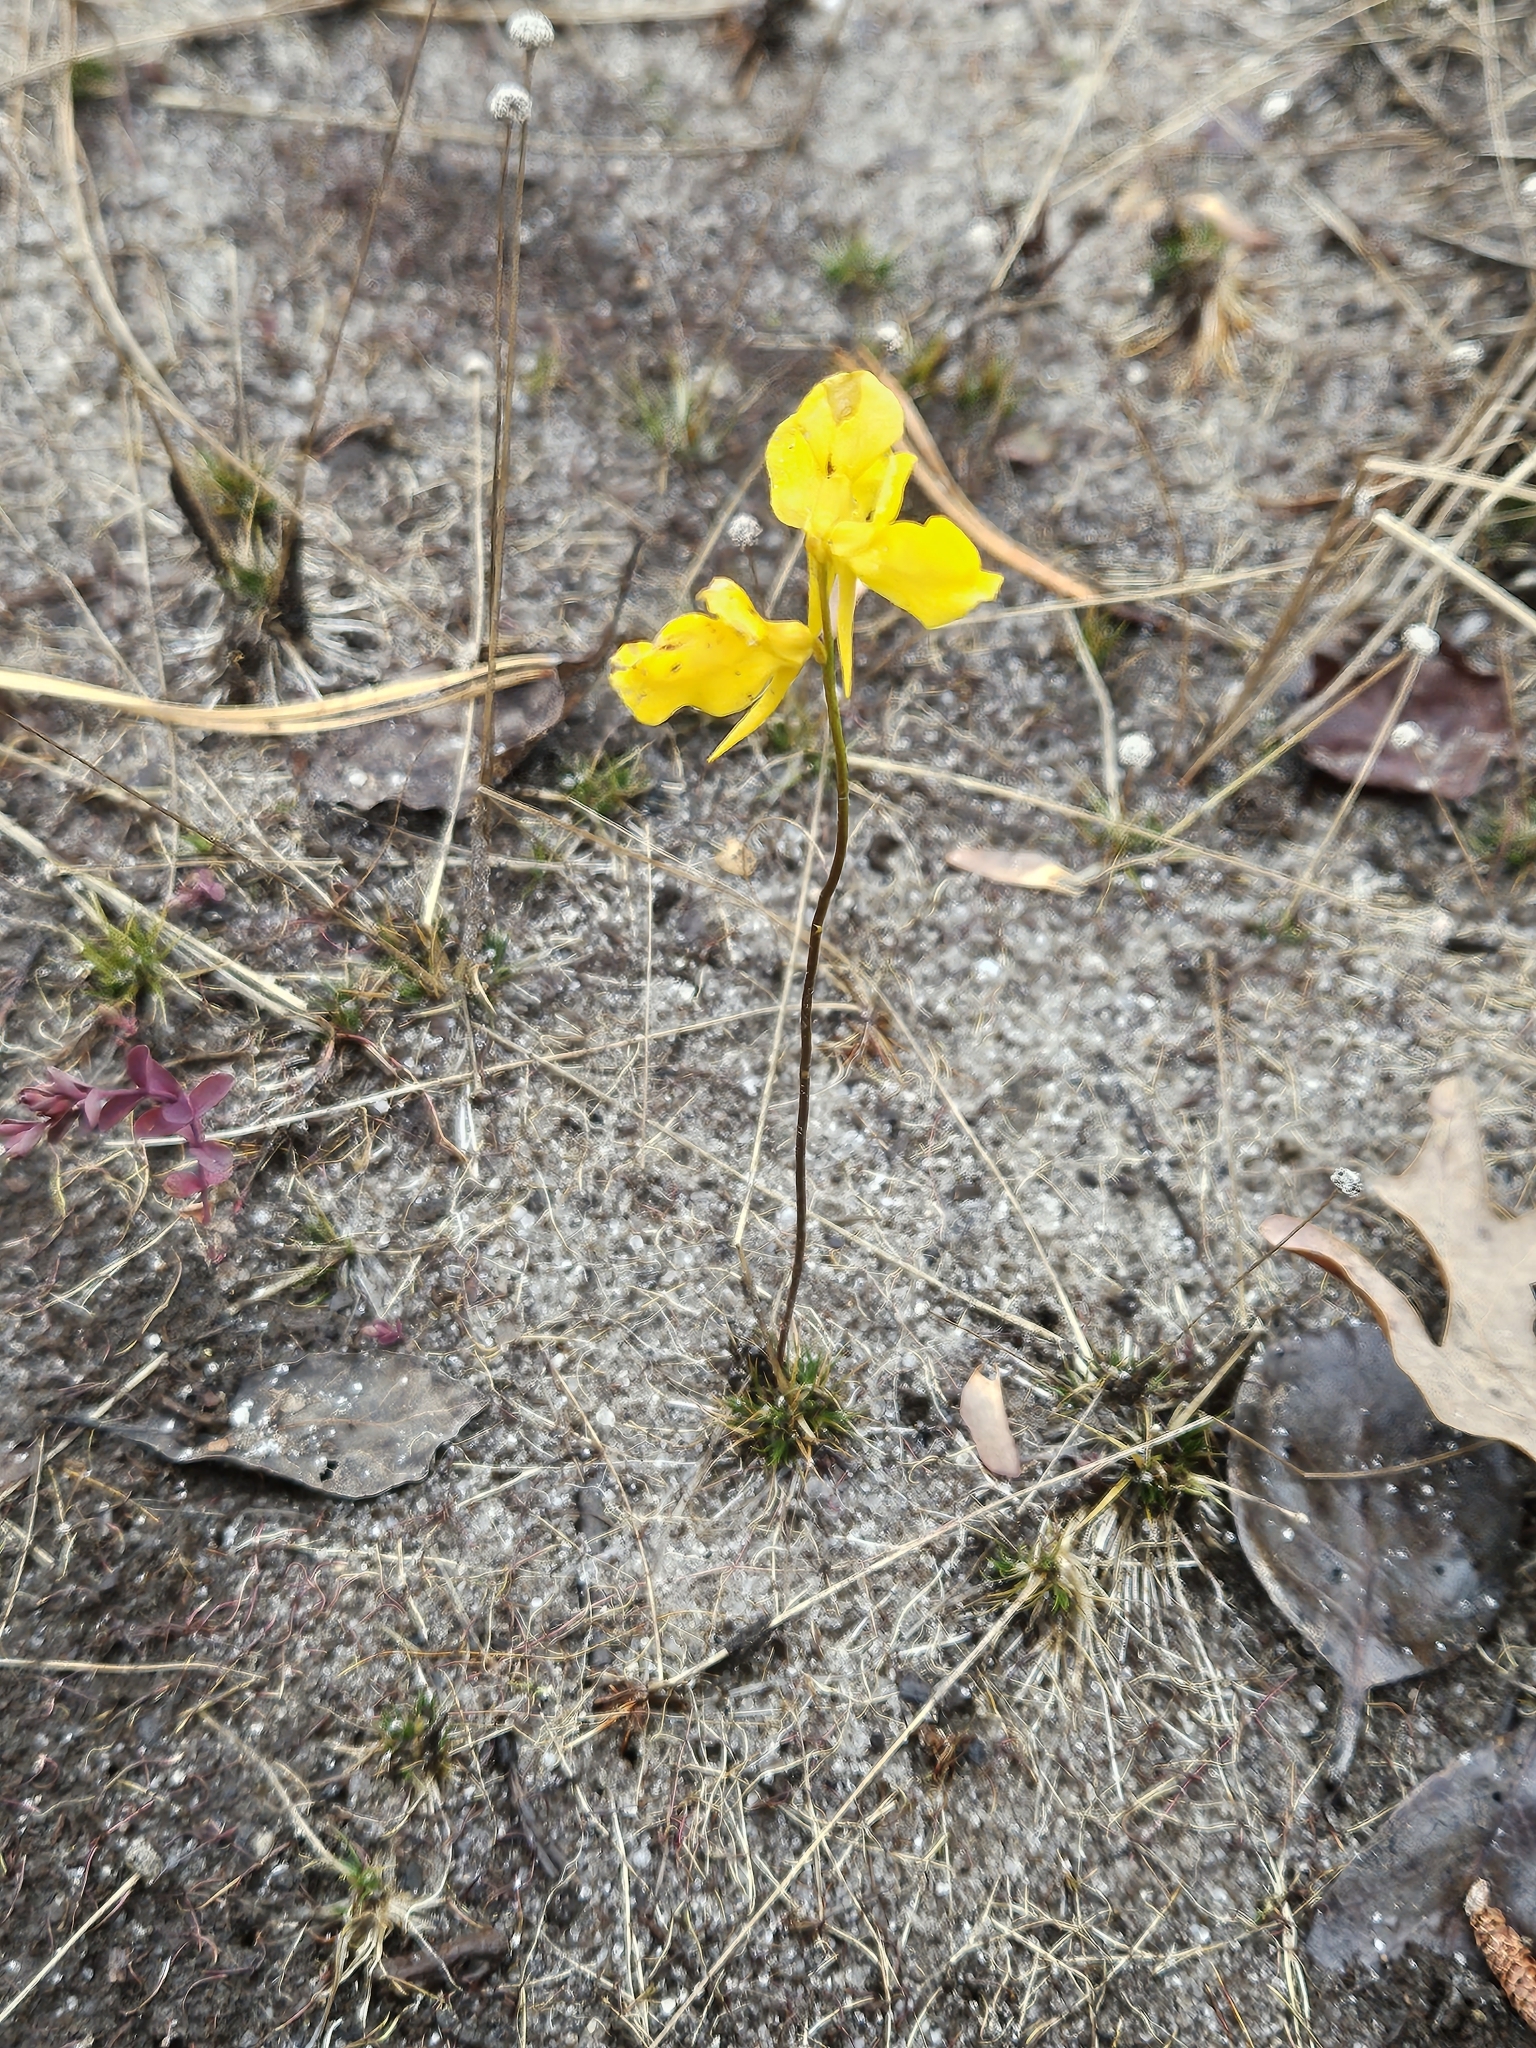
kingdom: Plantae
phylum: Tracheophyta
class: Magnoliopsida
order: Lamiales
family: Lentibulariaceae
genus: Utricularia
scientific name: Utricularia cornuta
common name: Horned bladderwort
